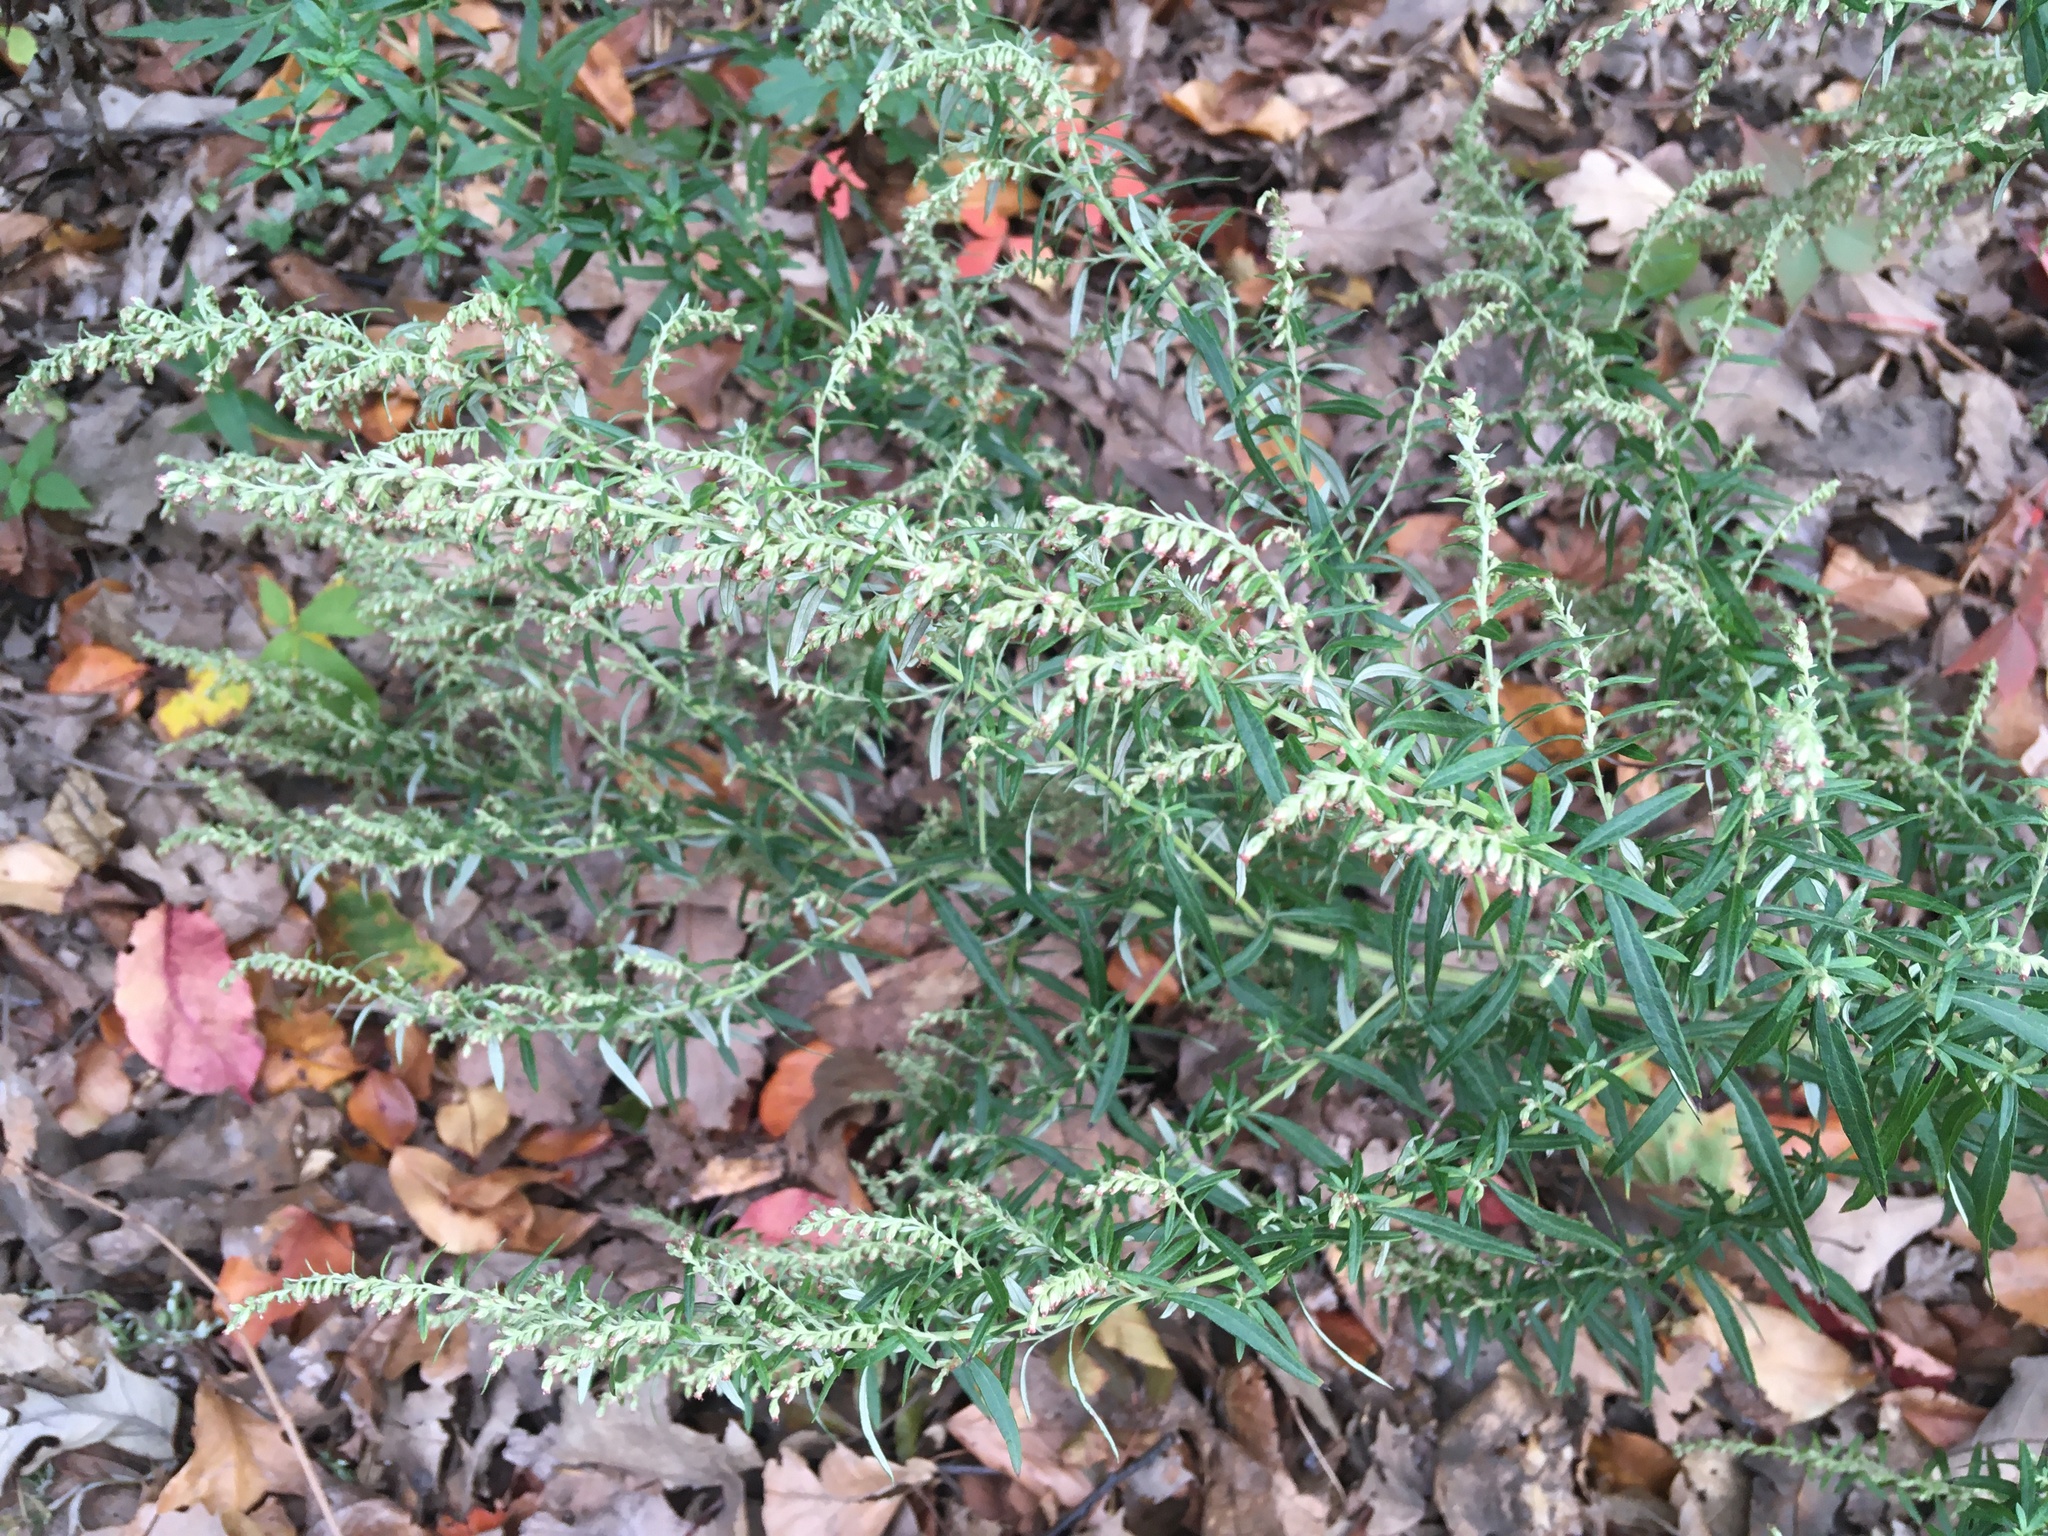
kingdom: Plantae
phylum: Tracheophyta
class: Magnoliopsida
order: Asterales
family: Asteraceae
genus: Artemisia
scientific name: Artemisia vulgaris
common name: Mugwort
